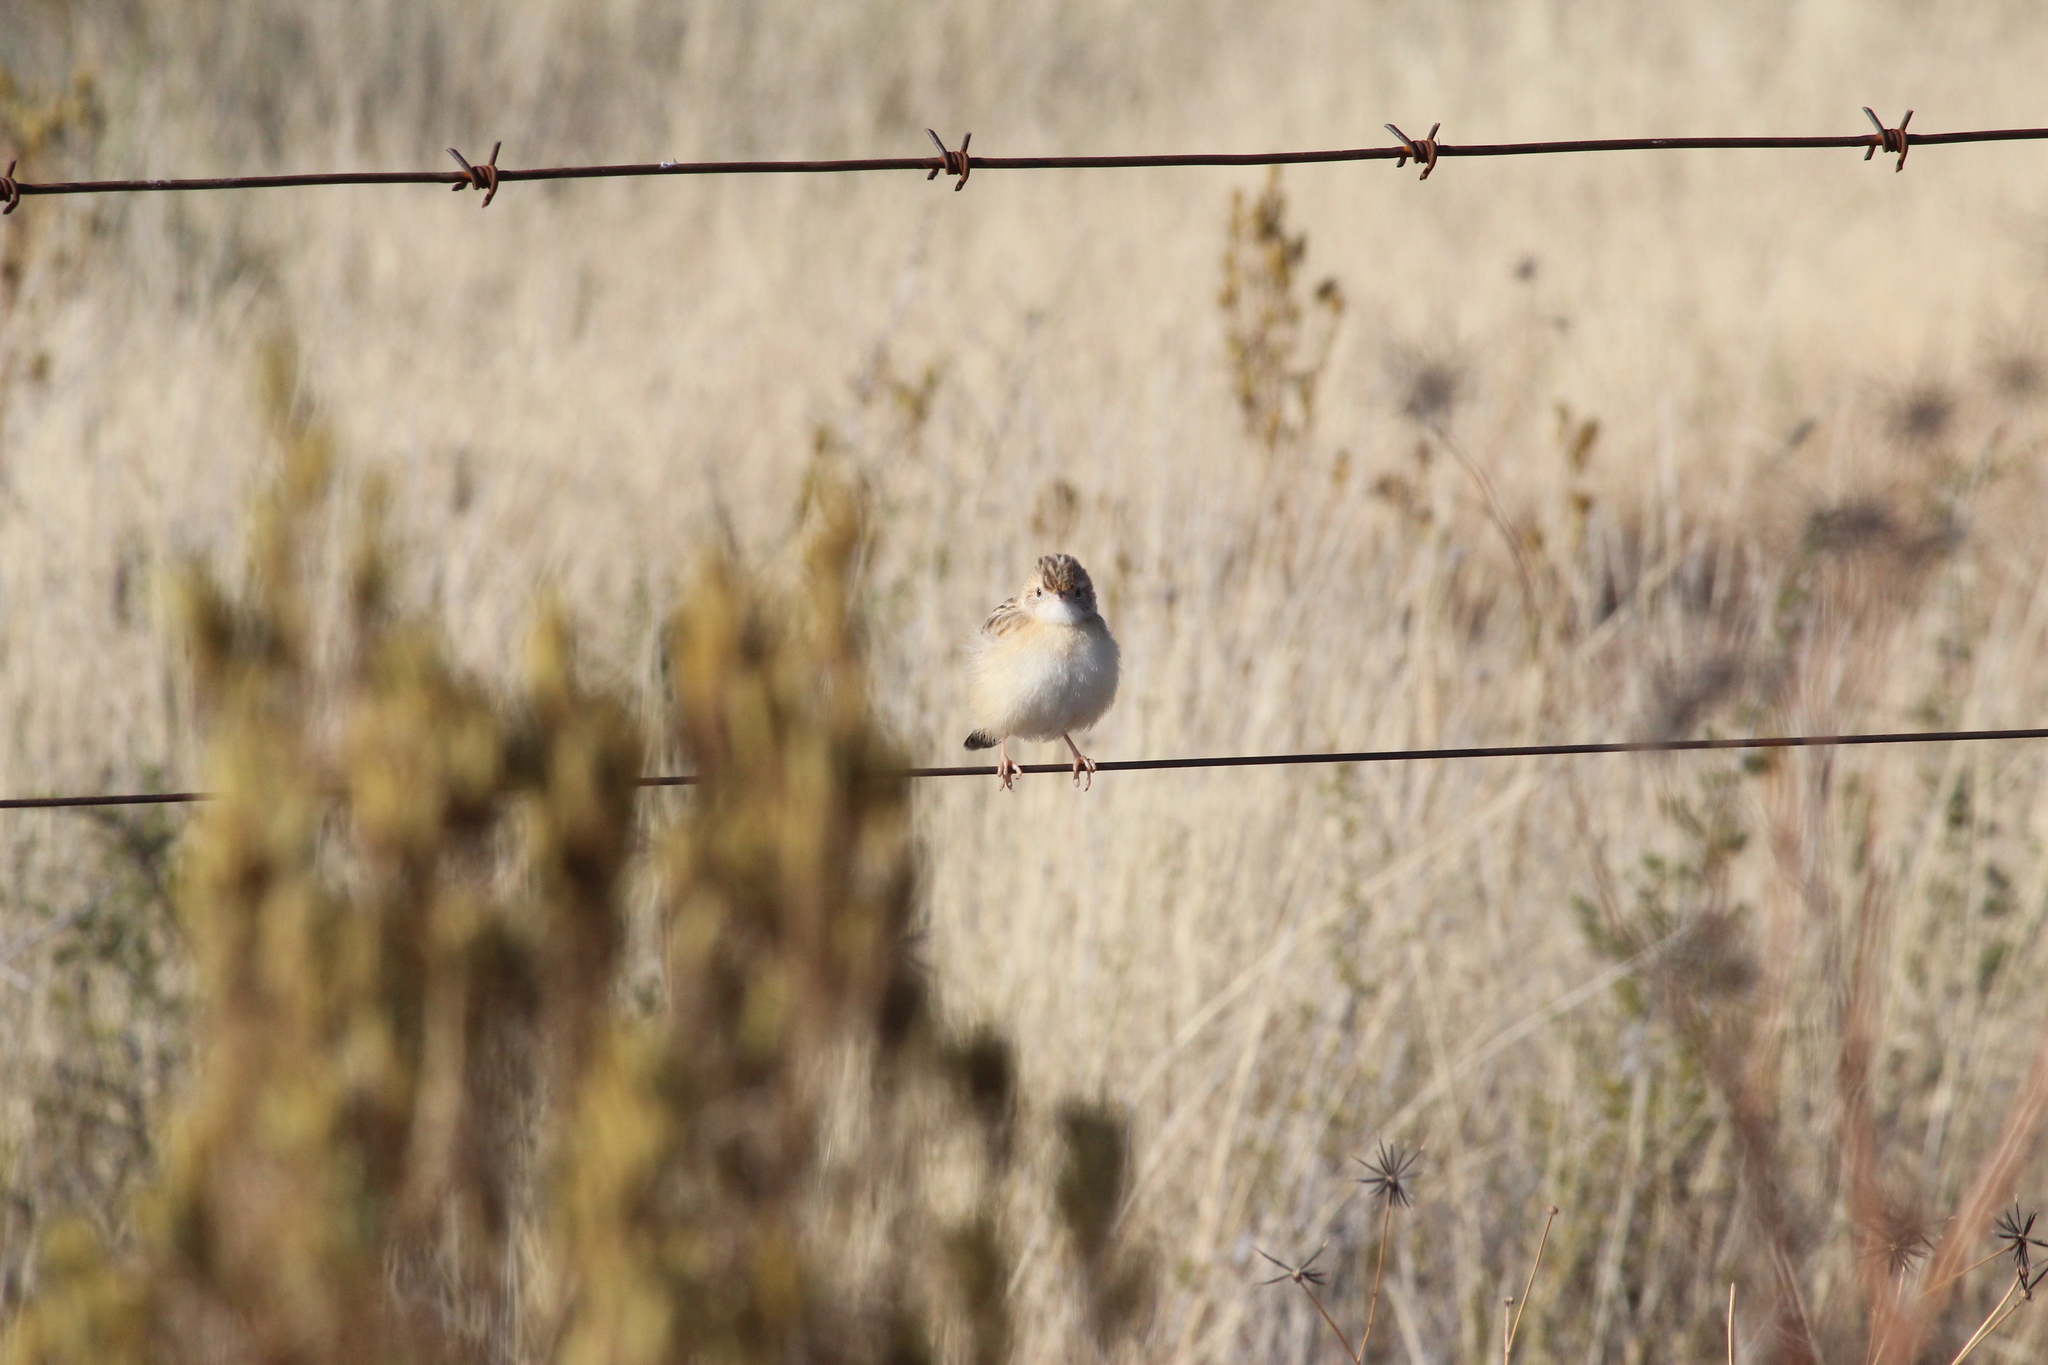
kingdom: Animalia
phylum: Chordata
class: Aves
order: Passeriformes
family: Cisticolidae
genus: Cisticola
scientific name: Cisticola juncidis
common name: Zitting cisticola
